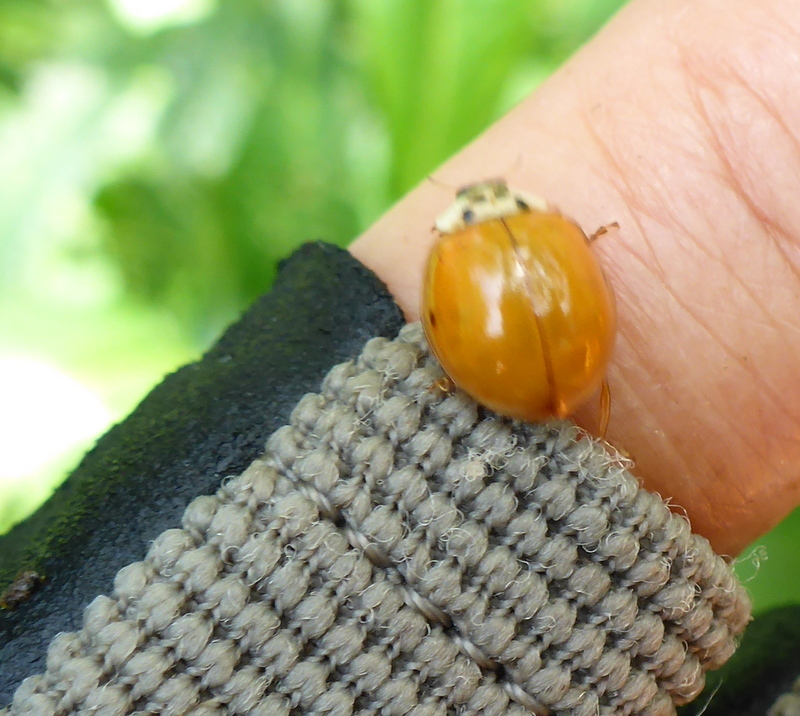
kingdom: Animalia
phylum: Arthropoda
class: Insecta
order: Coleoptera
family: Coccinellidae
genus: Harmonia
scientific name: Harmonia axyridis
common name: Harlequin ladybird
